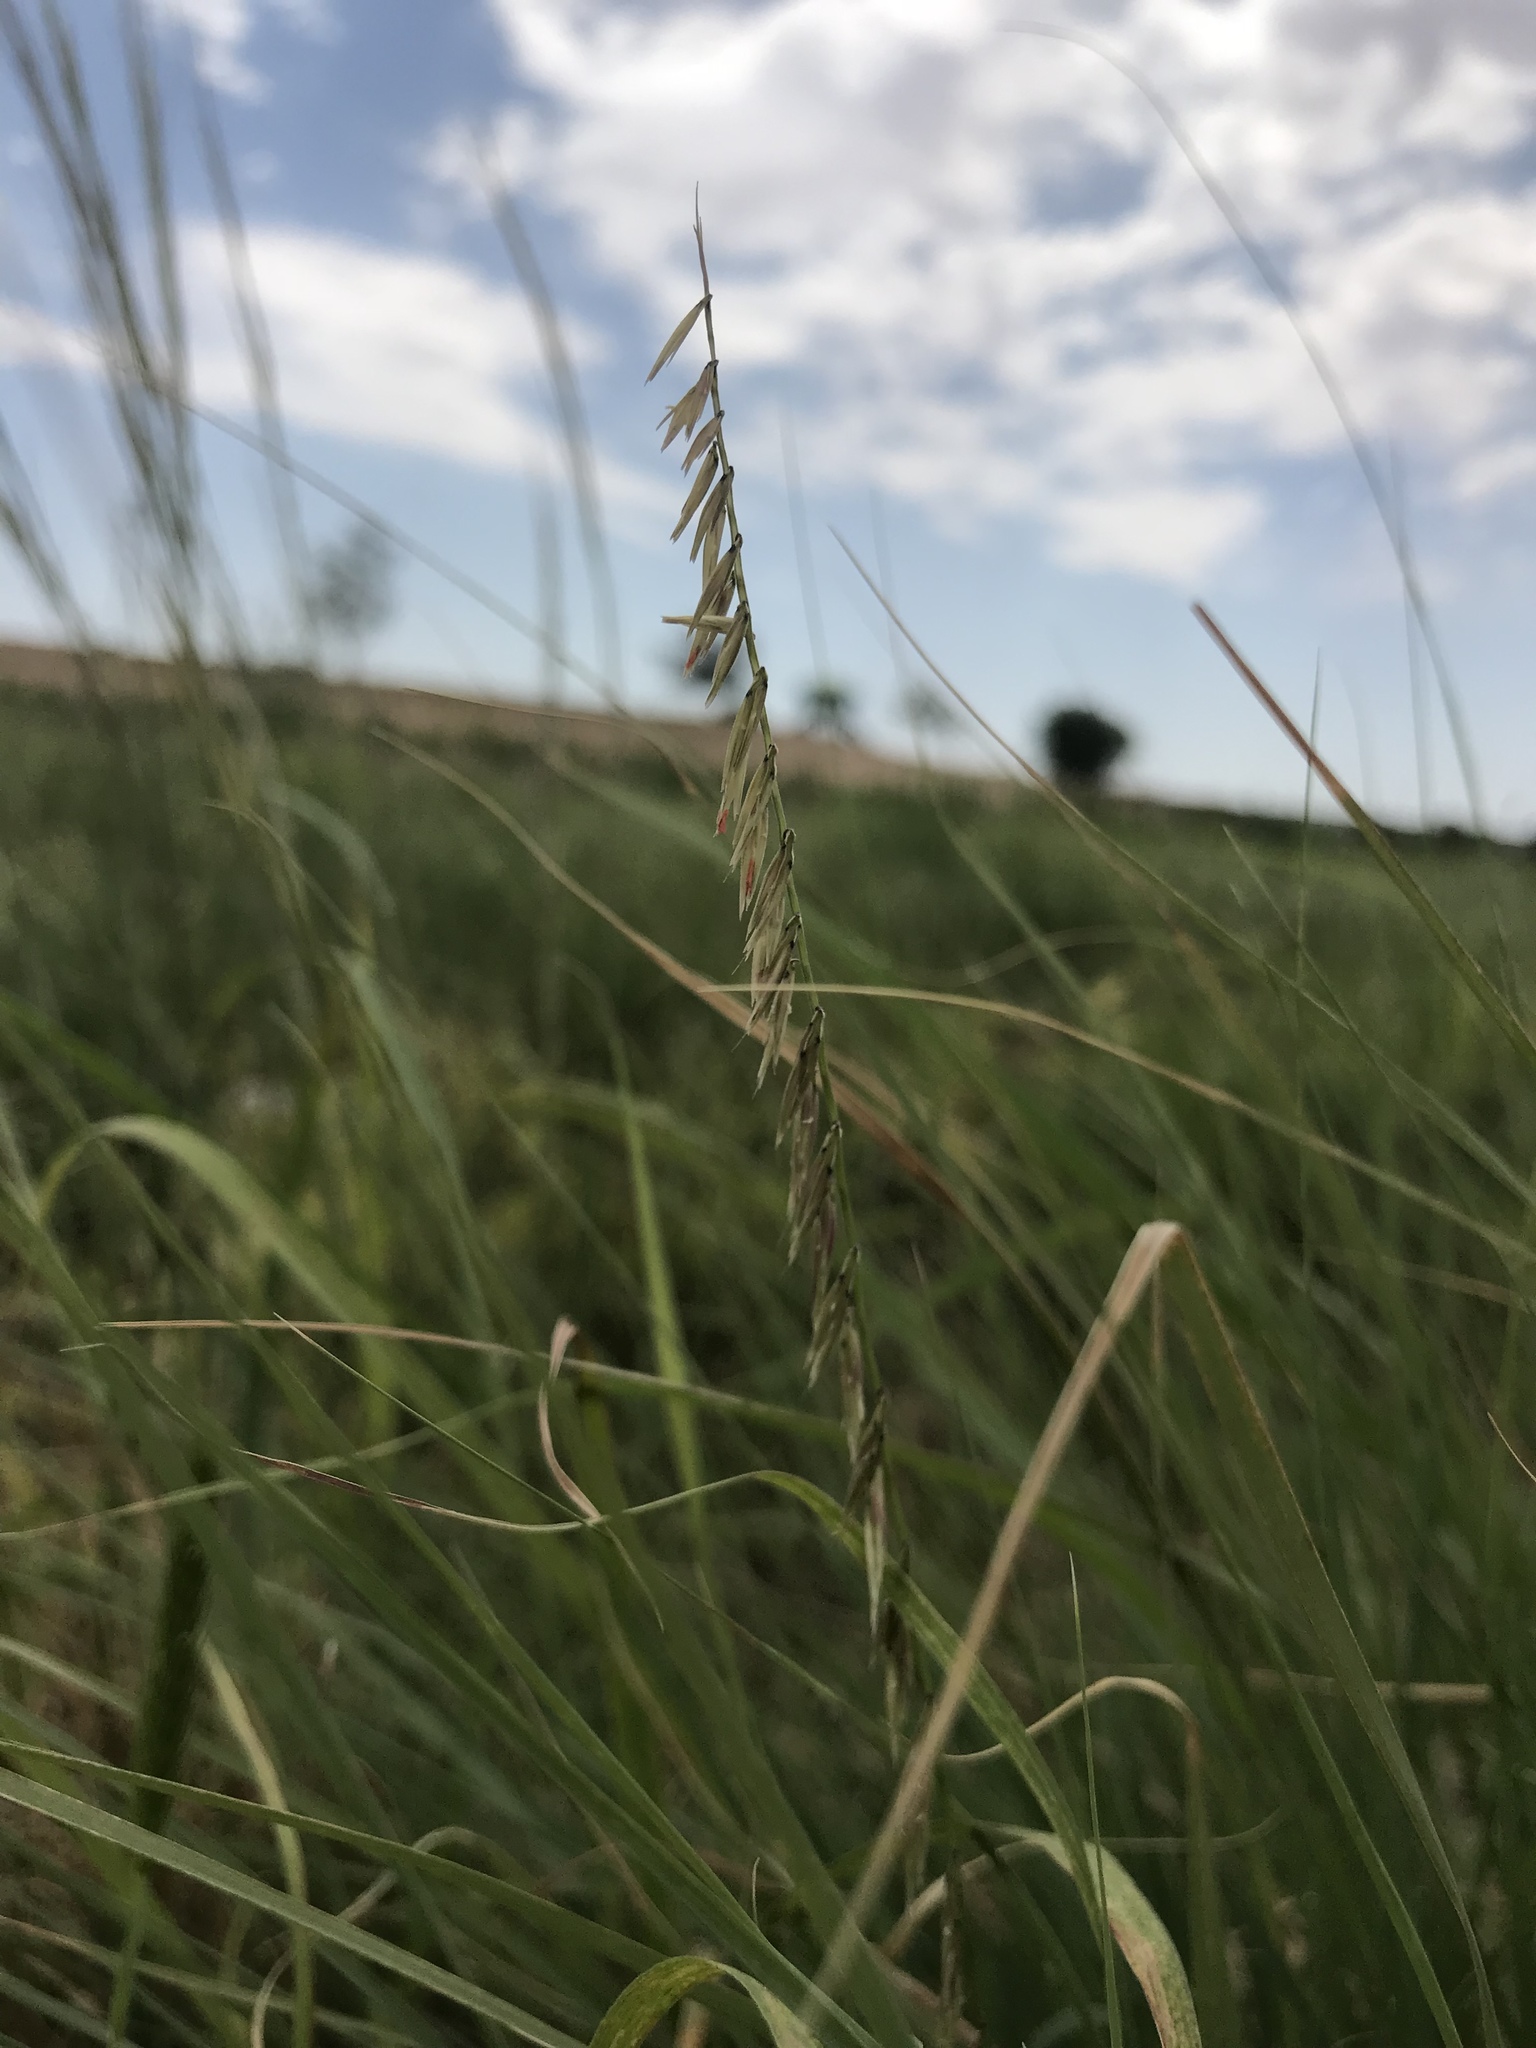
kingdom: Plantae
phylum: Tracheophyta
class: Liliopsida
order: Poales
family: Poaceae
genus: Bouteloua
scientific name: Bouteloua curtipendula
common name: Side-oats grama
